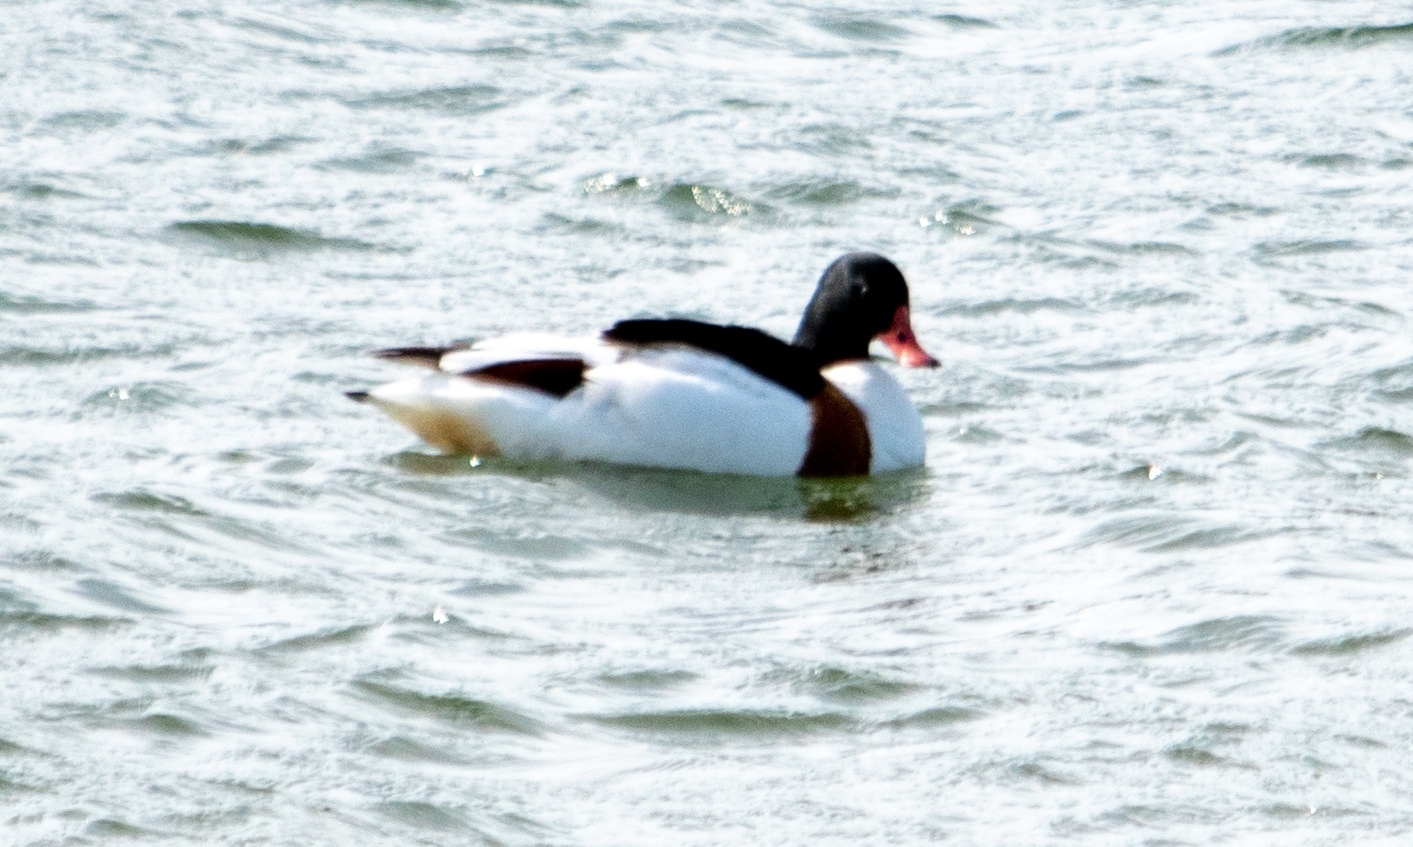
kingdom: Animalia
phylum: Chordata
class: Aves
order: Anseriformes
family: Anatidae
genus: Tadorna
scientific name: Tadorna tadorna
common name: Common shelduck
